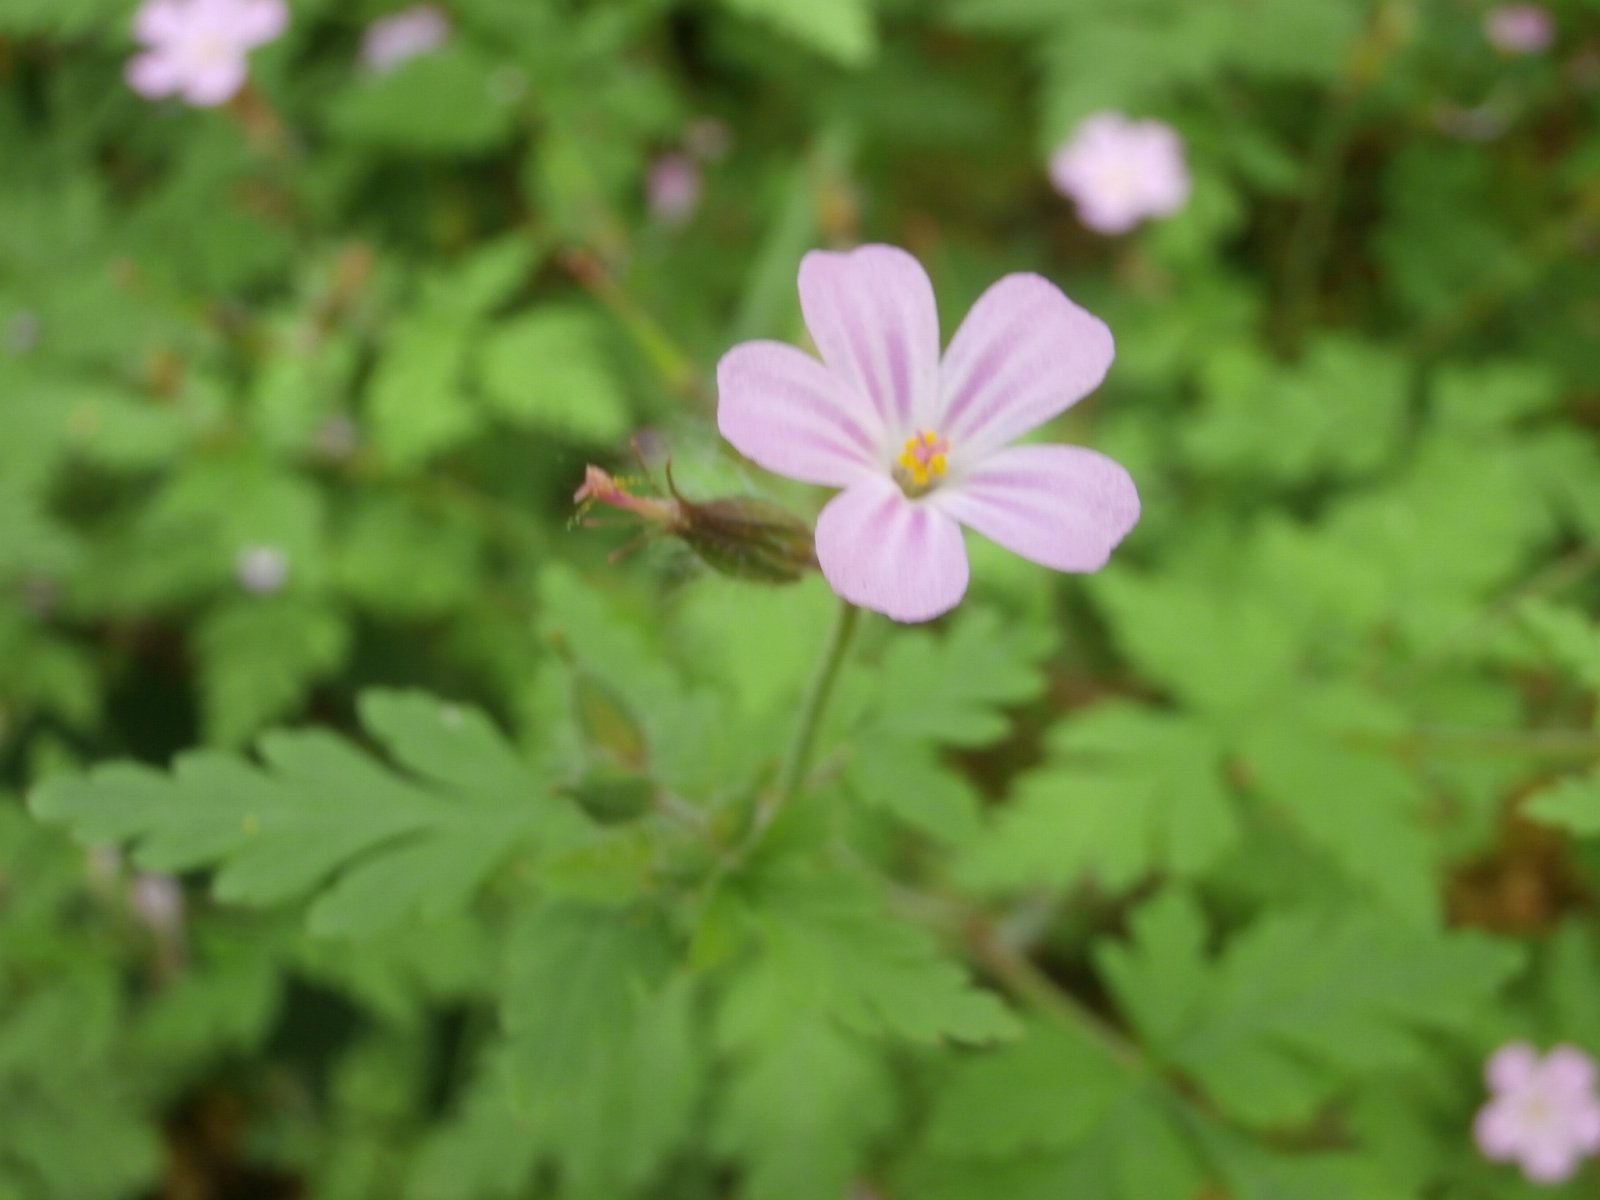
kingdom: Plantae
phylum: Tracheophyta
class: Magnoliopsida
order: Geraniales
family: Geraniaceae
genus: Geranium
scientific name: Geranium robertianum
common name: Herb-robert
